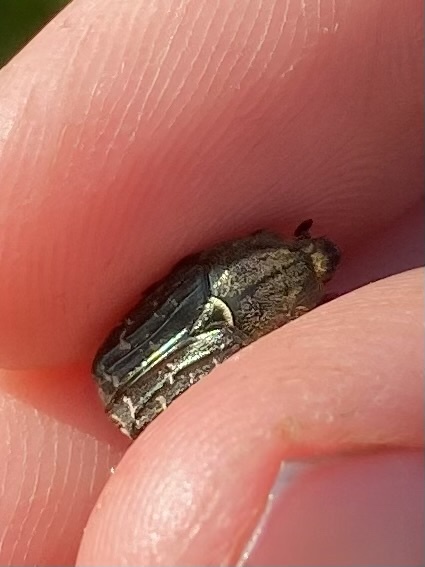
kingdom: Animalia
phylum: Arthropoda
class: Insecta
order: Coleoptera
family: Scarabaeidae
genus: Euphoria
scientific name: Euphoria sepulcralis
